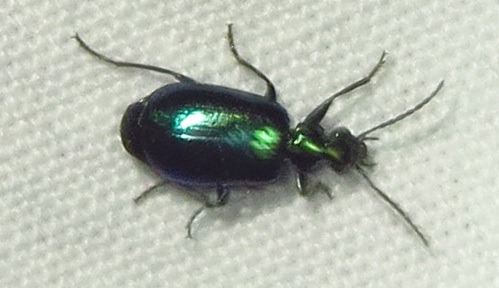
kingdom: Animalia
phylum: Arthropoda
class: Insecta
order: Coleoptera
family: Carabidae
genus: Lebia
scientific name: Lebia viridis
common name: Flower lebia beetle
